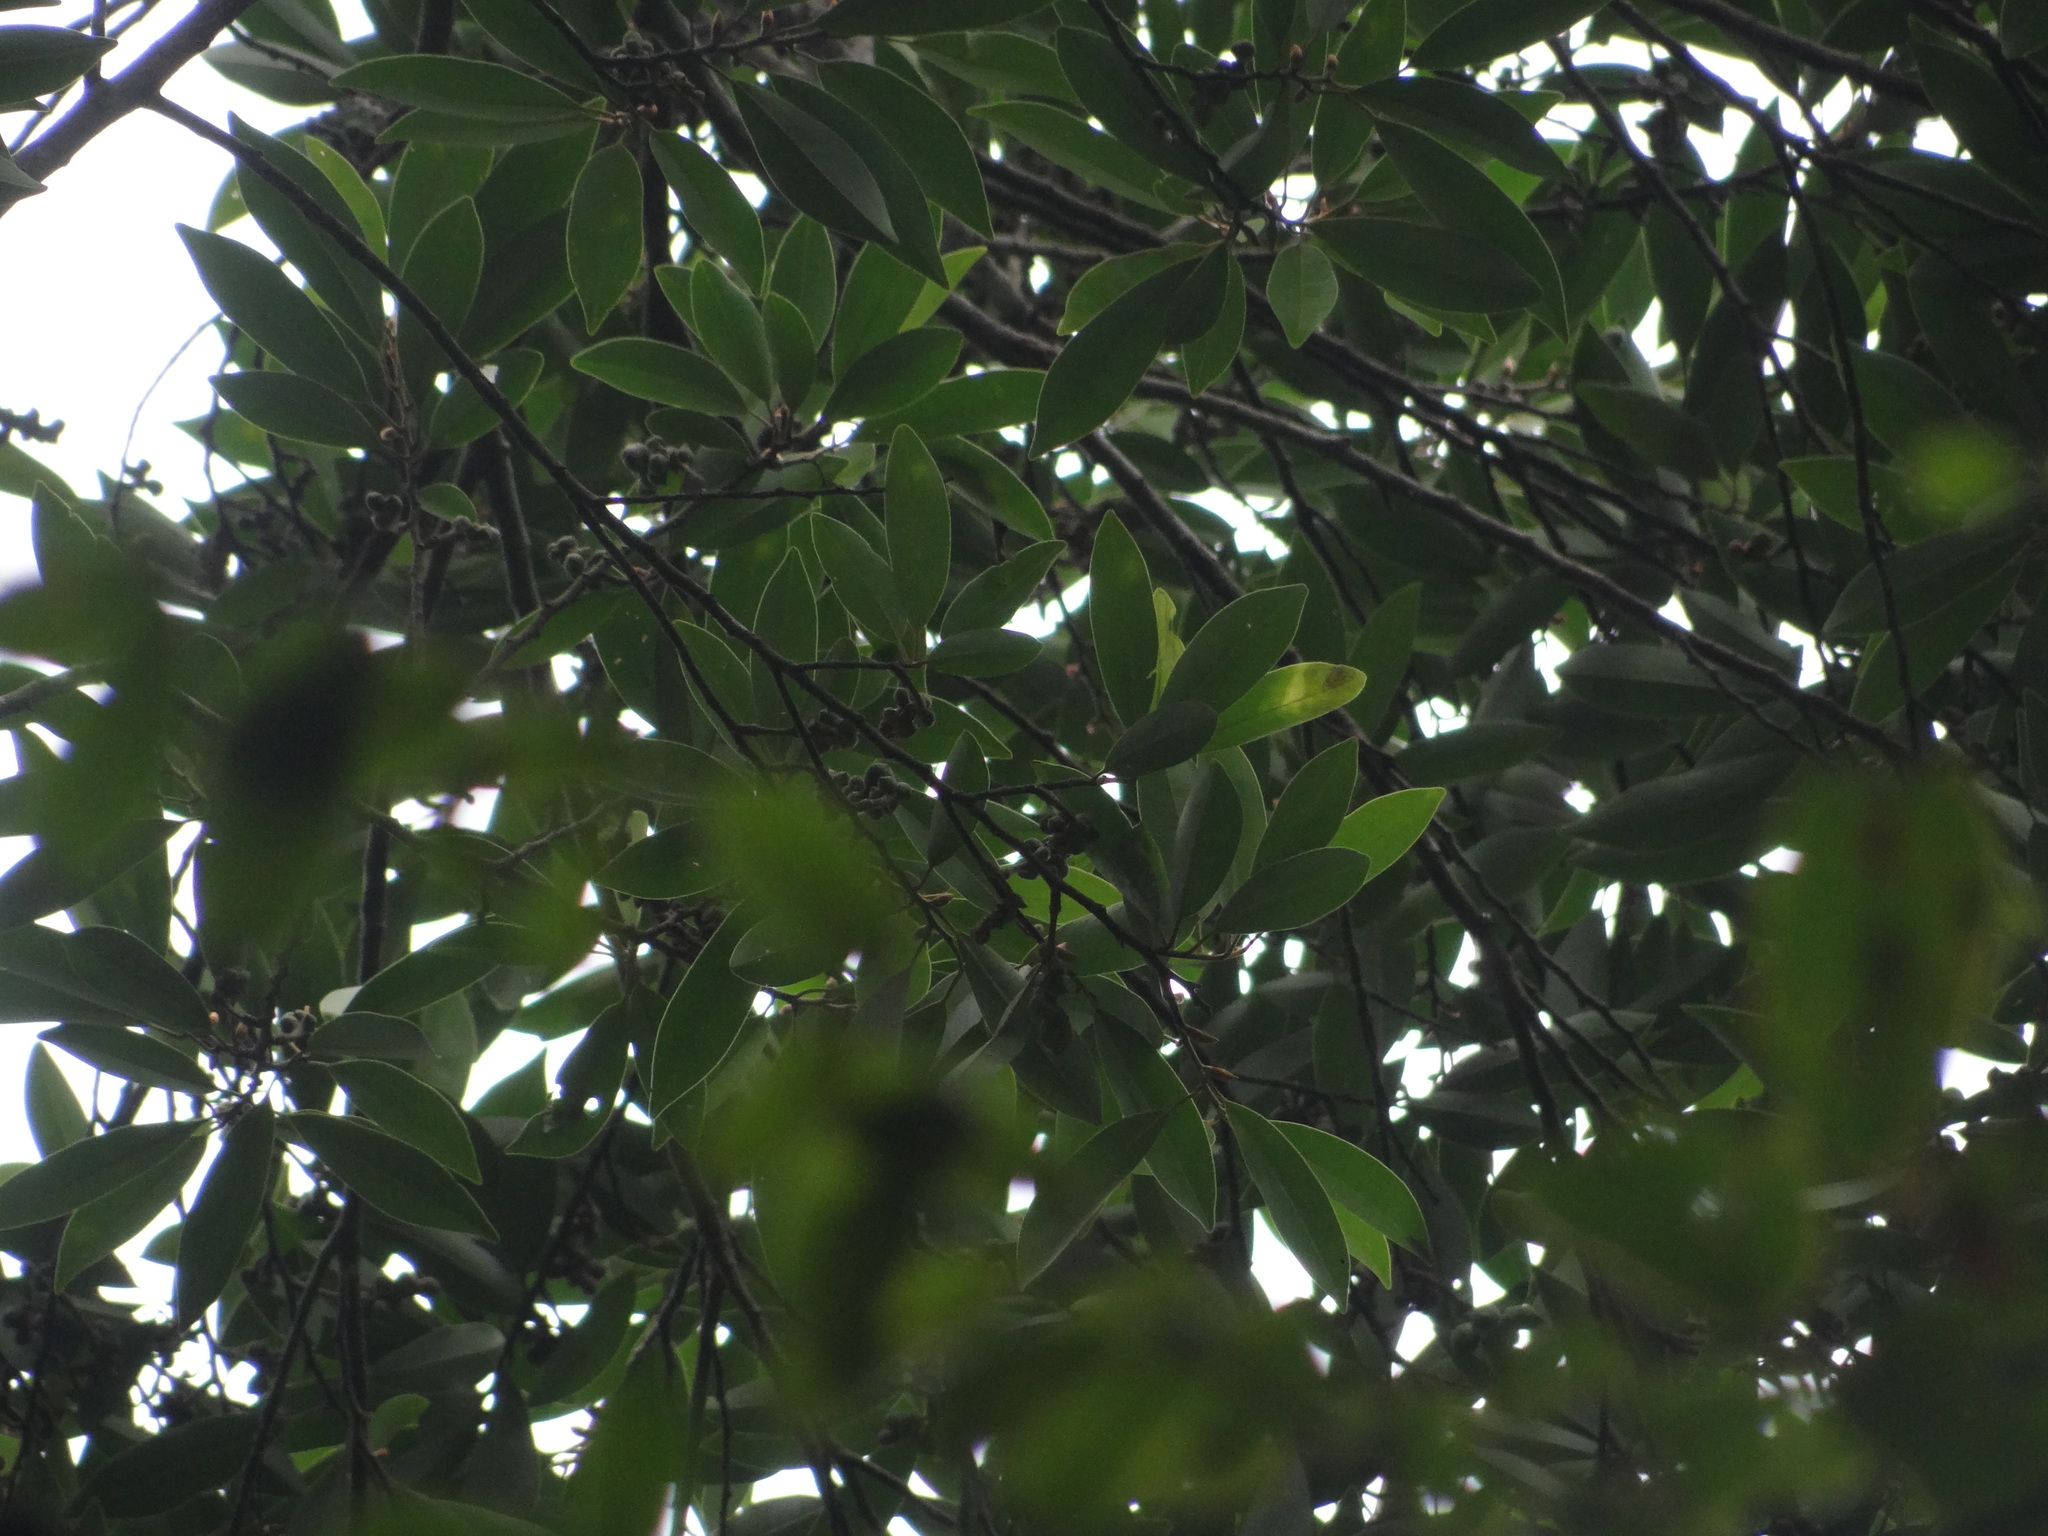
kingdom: Plantae
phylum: Tracheophyta
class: Magnoliopsida
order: Magnoliales
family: Magnoliaceae
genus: Magnolia
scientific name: Magnolia compressa
